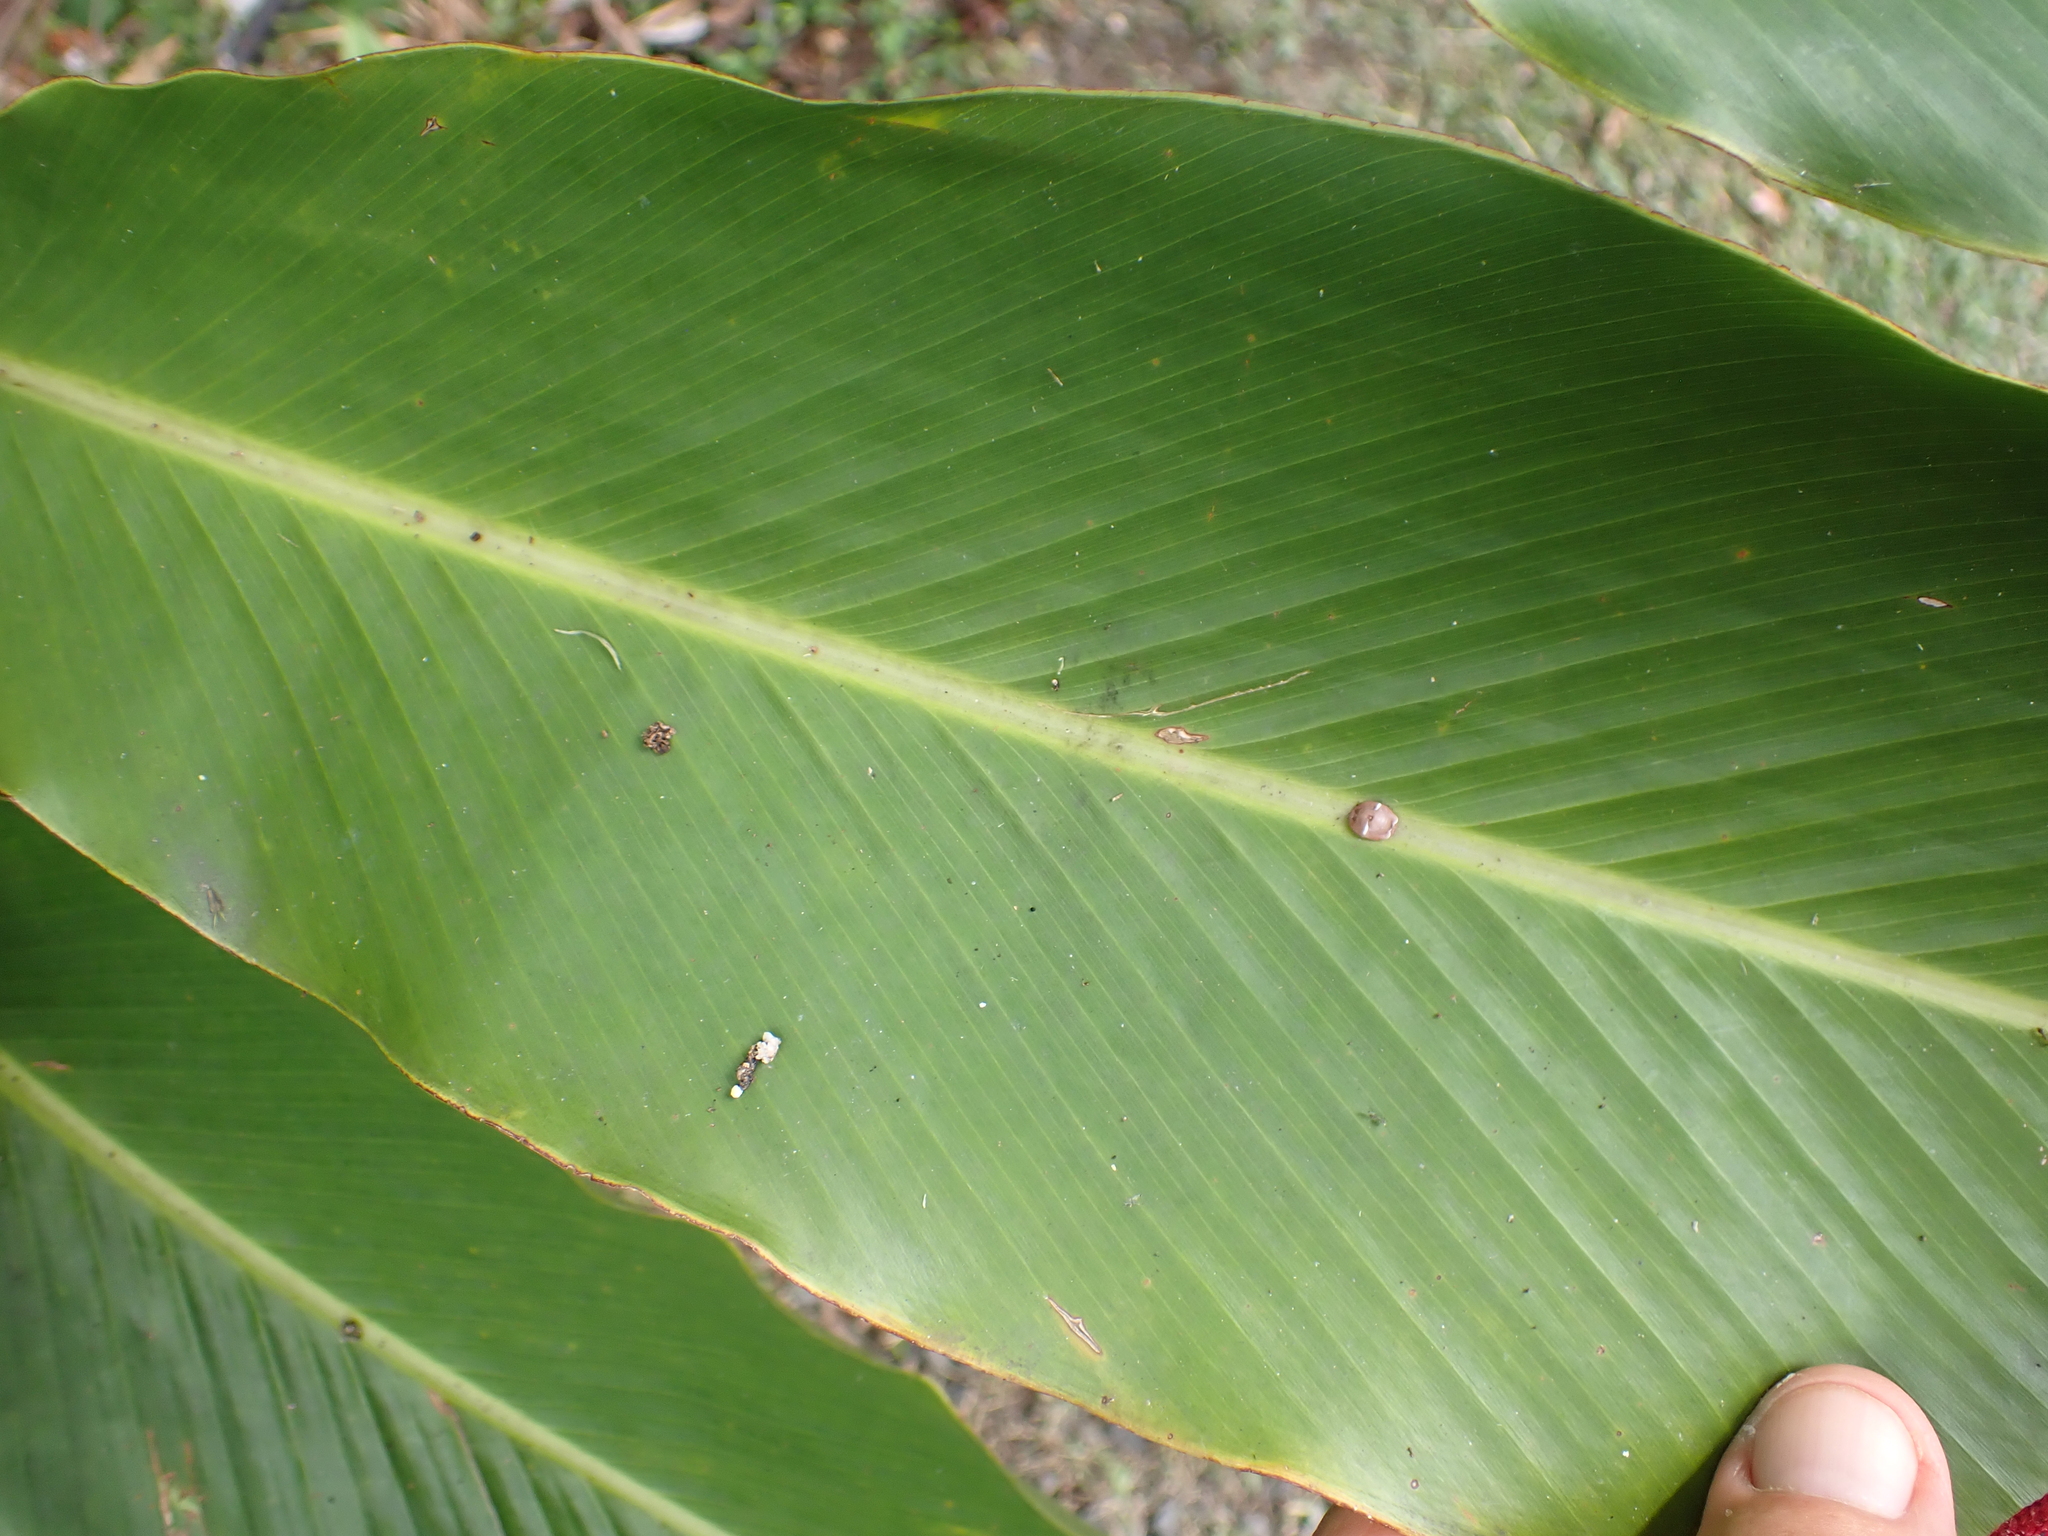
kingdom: Animalia
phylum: Arthropoda
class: Insecta
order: Hemiptera
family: Coccidae
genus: Ceroplastes
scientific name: Ceroplastes rubens
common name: Pink wax scale
